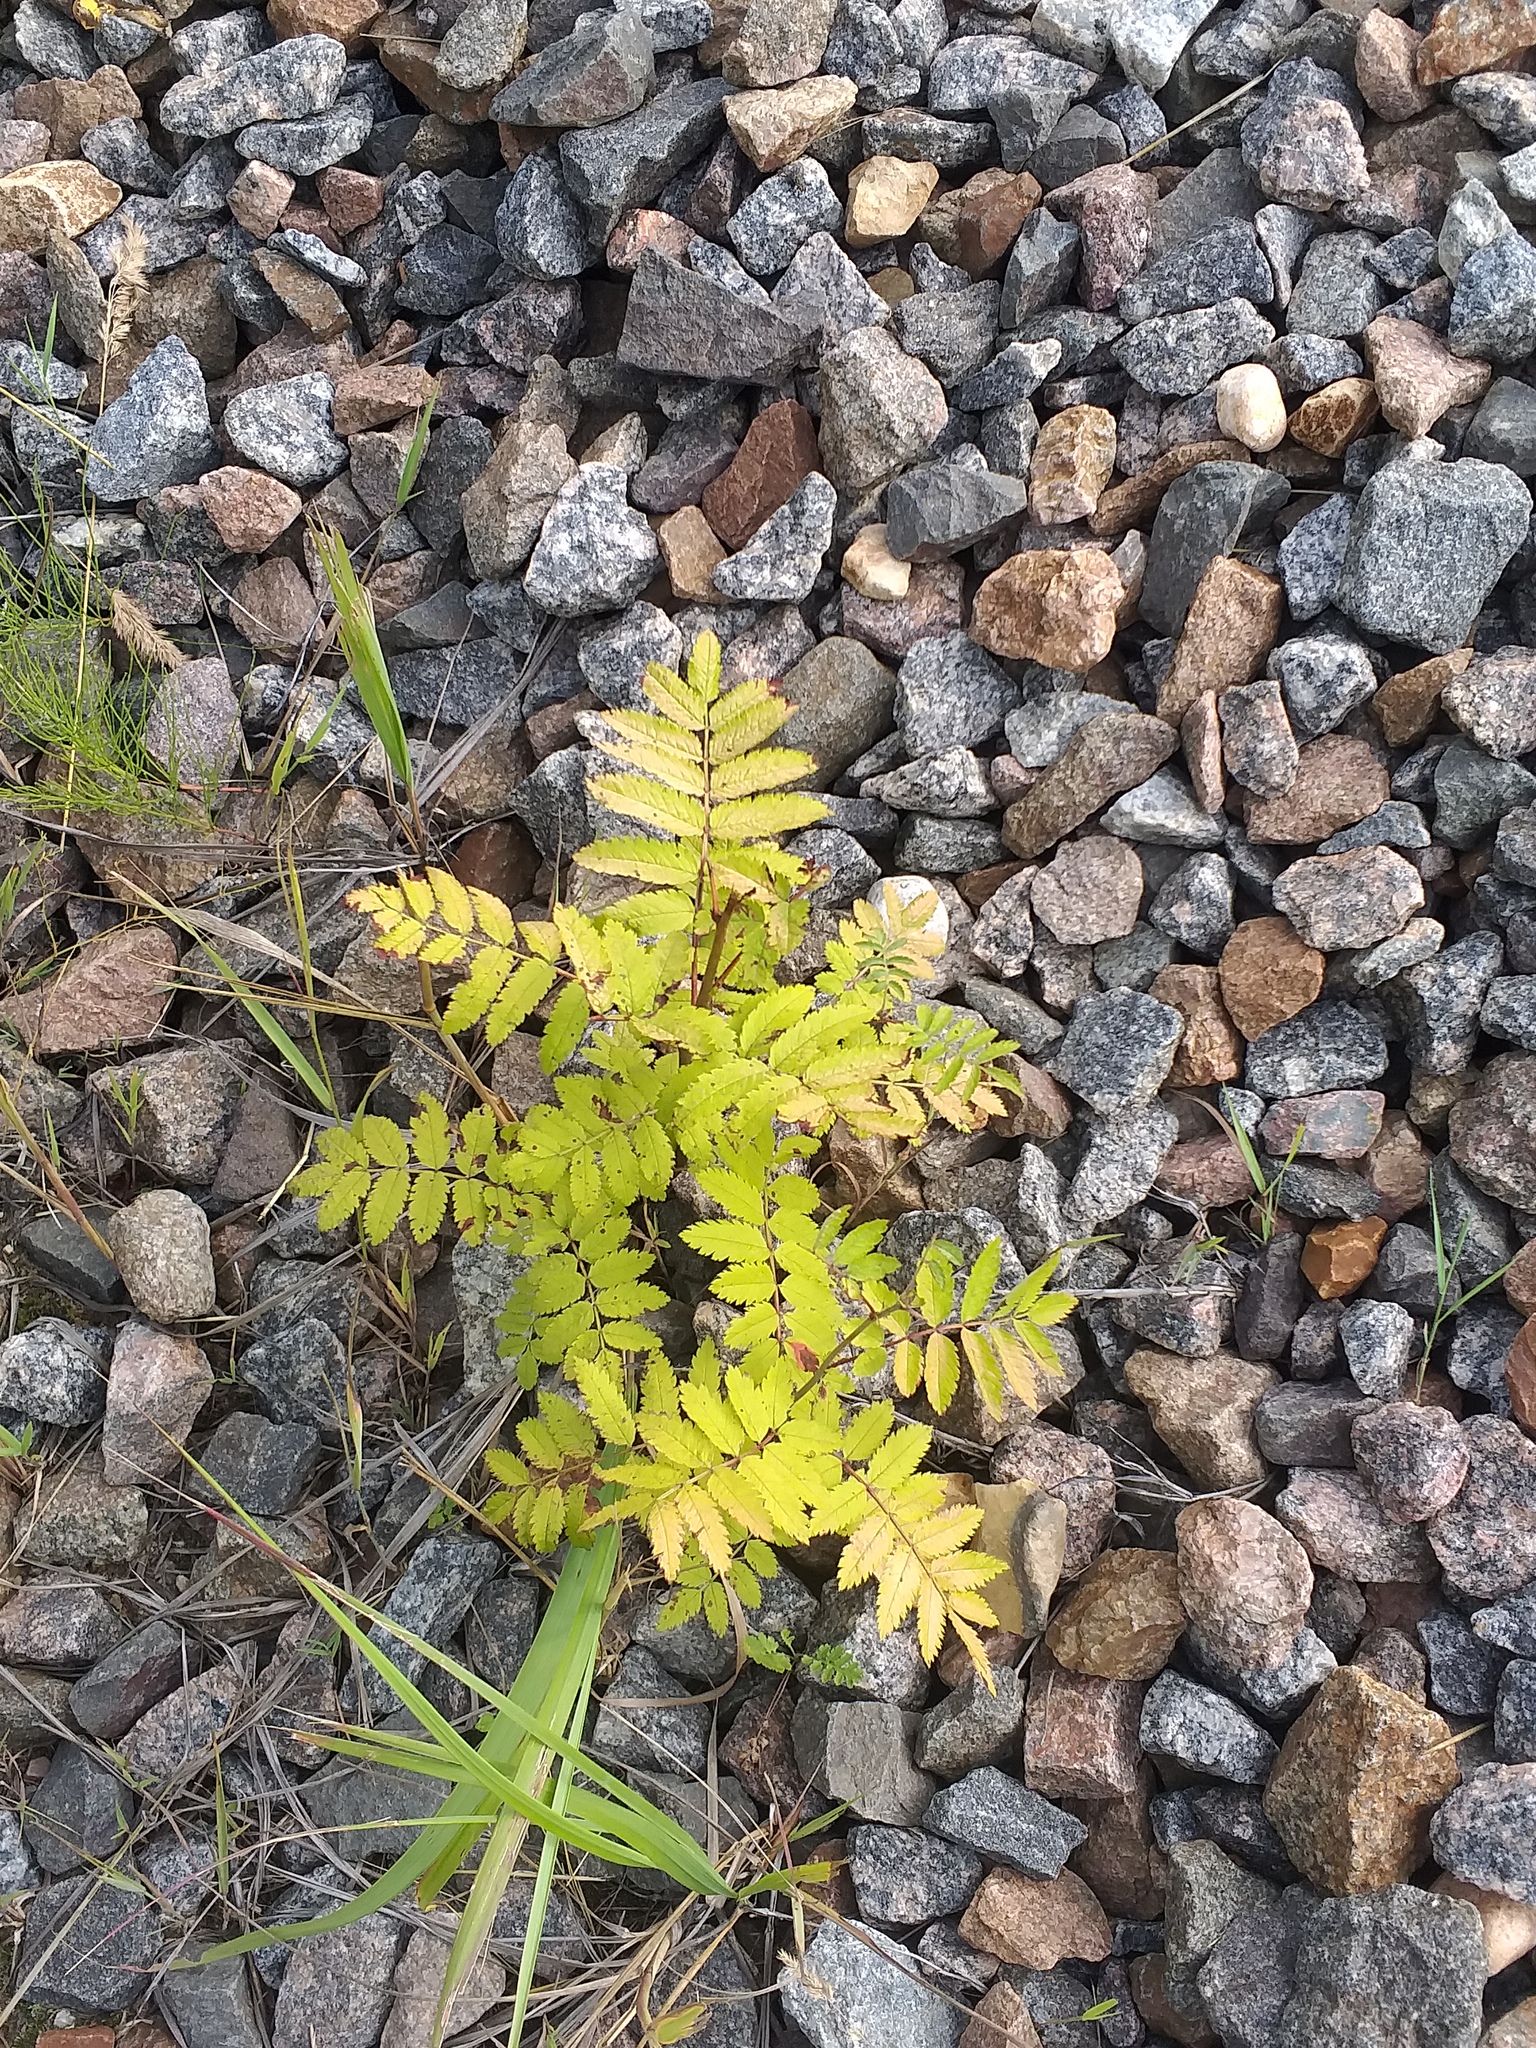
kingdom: Plantae
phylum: Tracheophyta
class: Magnoliopsida
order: Rosales
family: Rosaceae
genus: Sorbus
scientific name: Sorbus aucuparia
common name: Rowan
